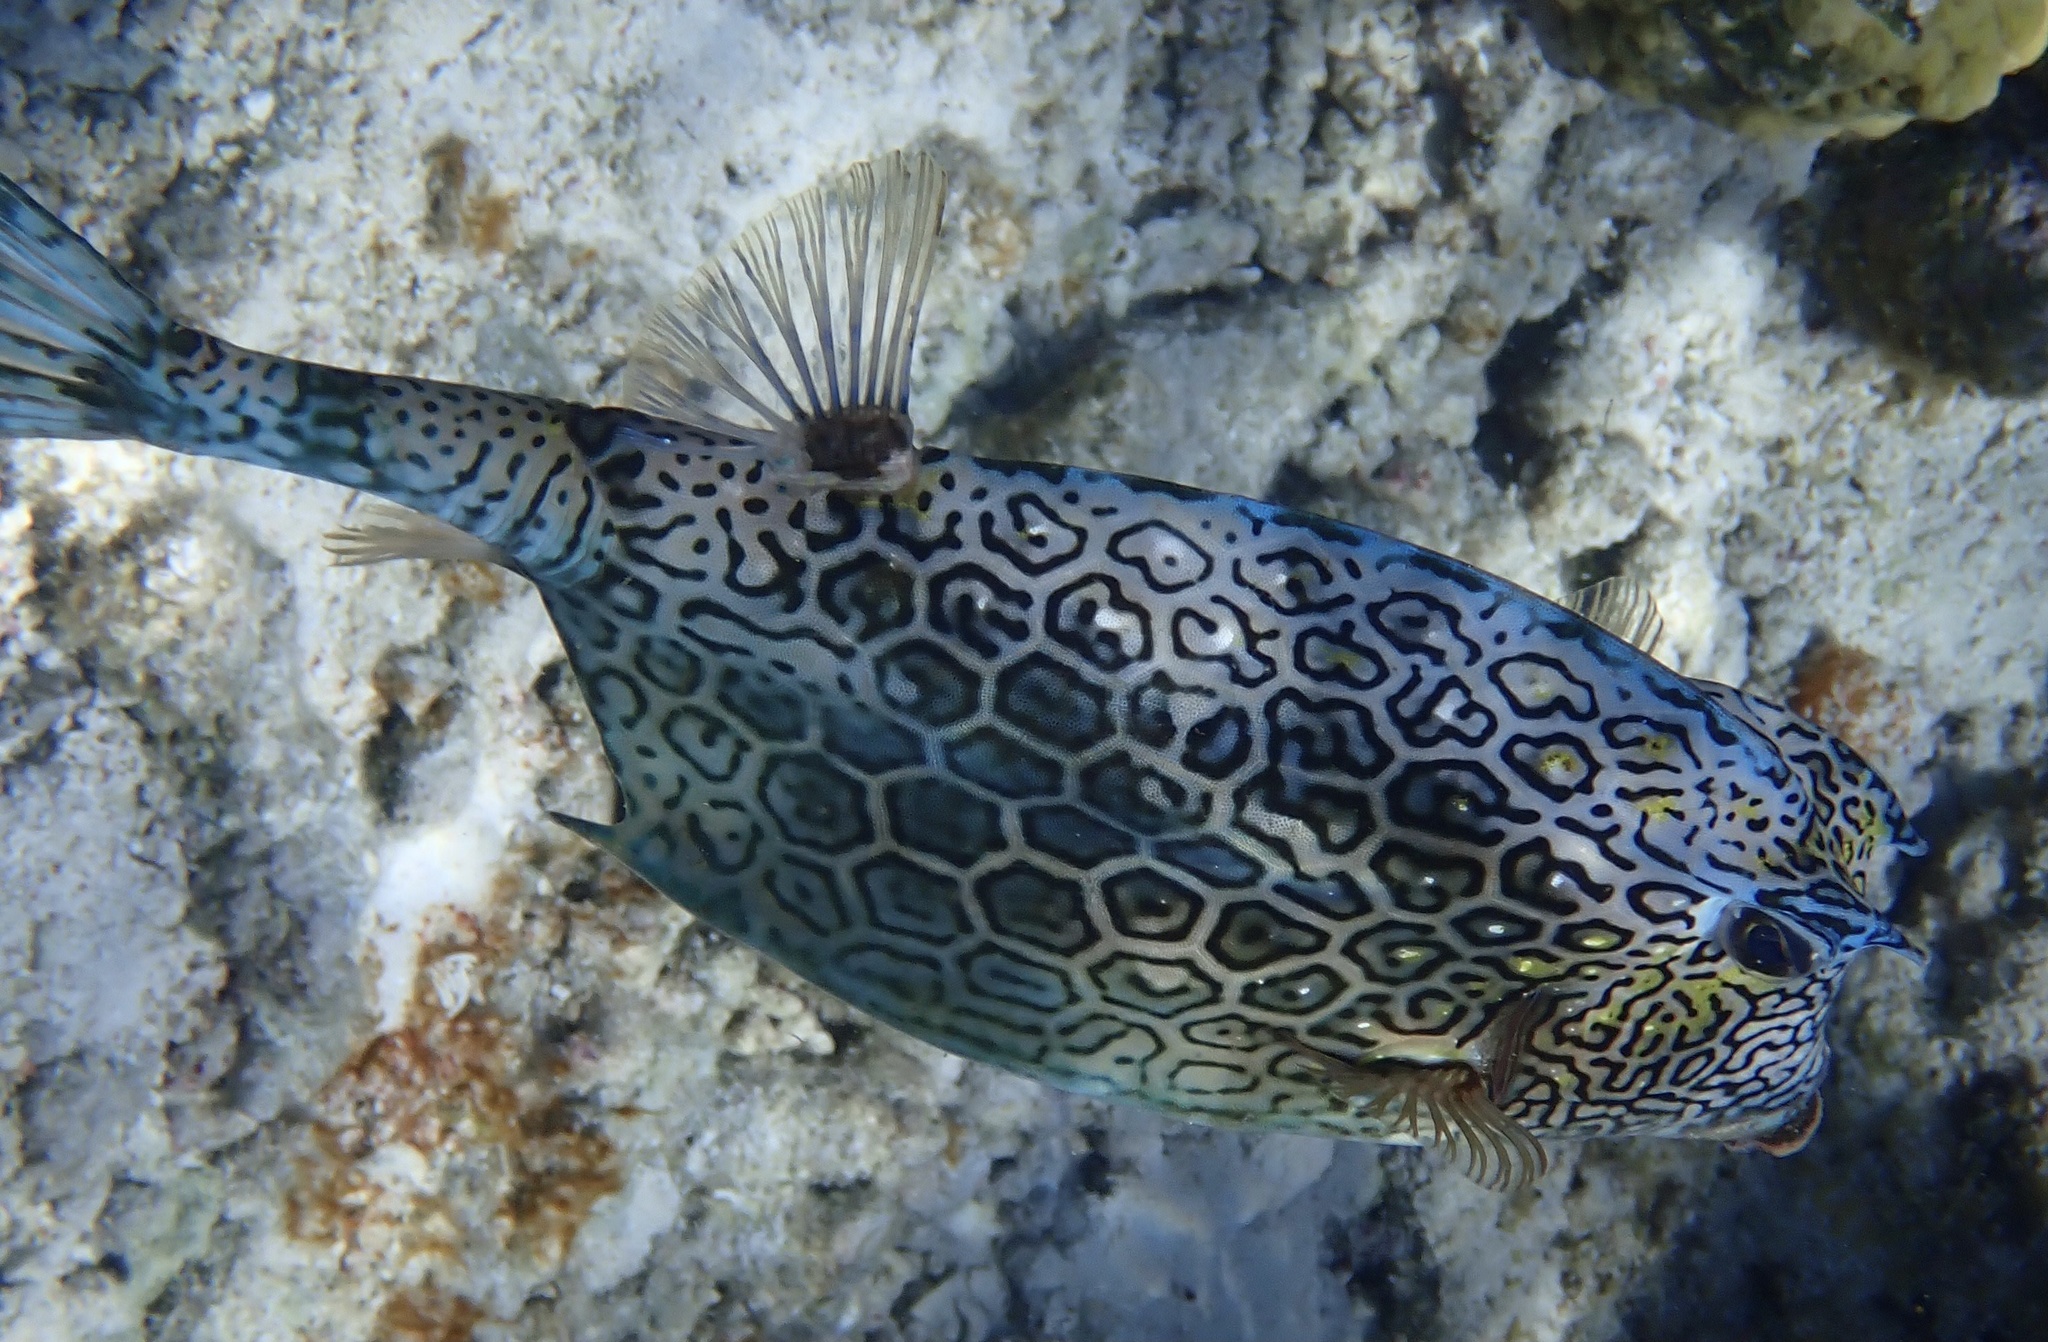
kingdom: Animalia
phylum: Chordata
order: Tetraodontiformes
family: Ostraciidae
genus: Acanthostracion
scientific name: Acanthostracion polygonius
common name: Honeycomb cowfish
